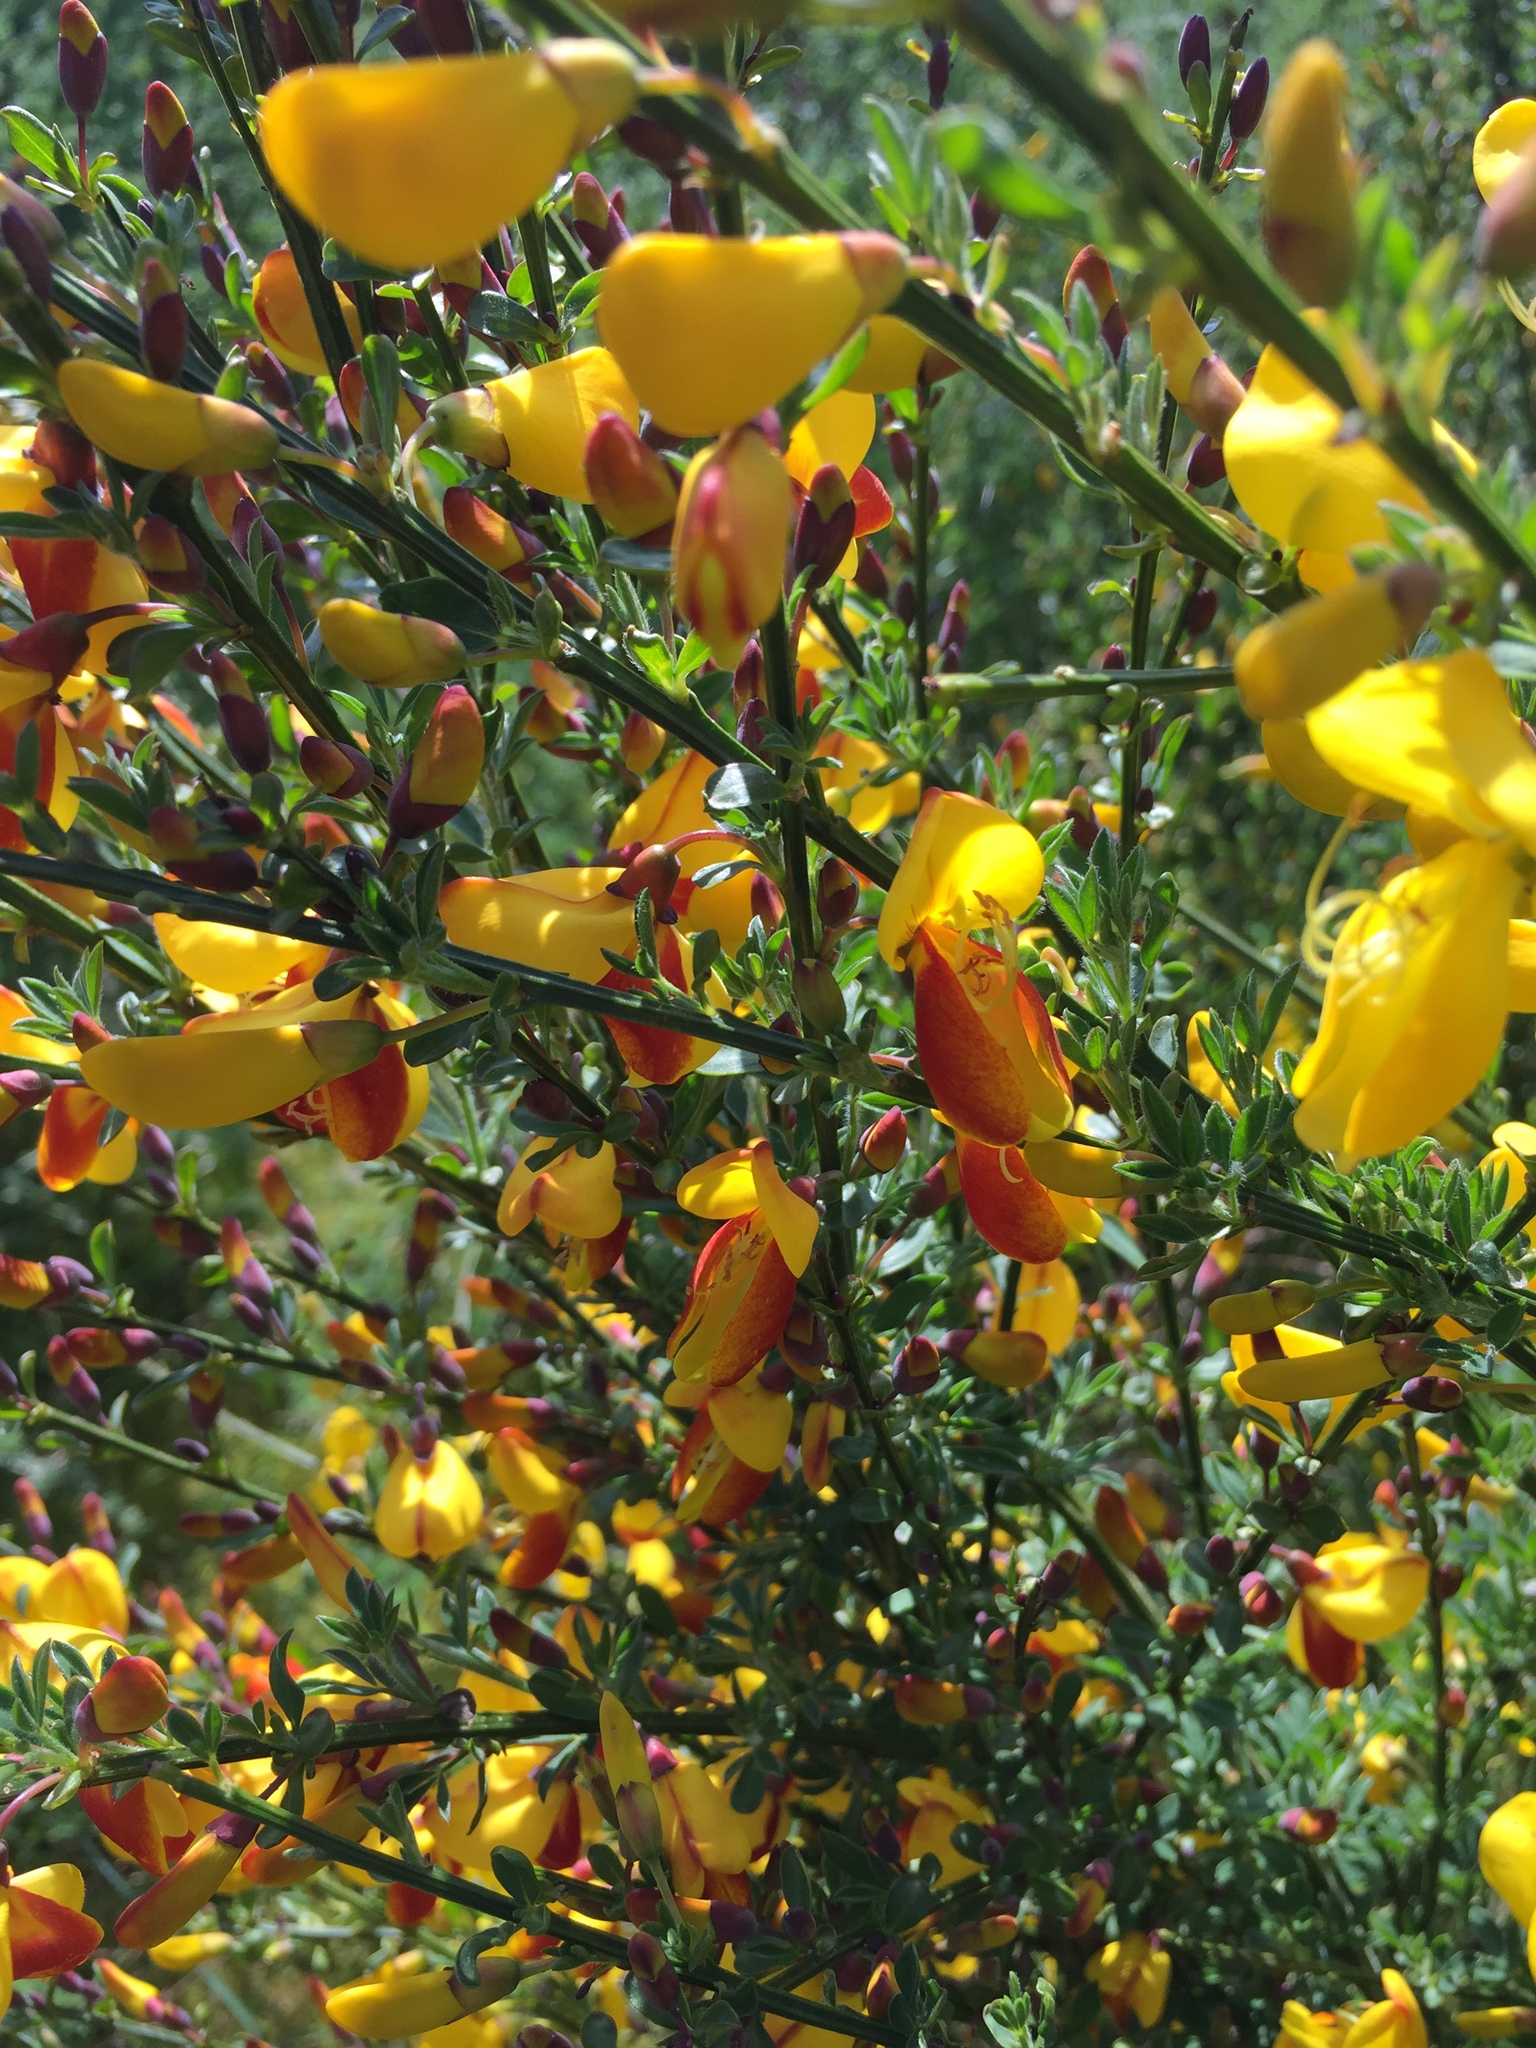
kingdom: Plantae
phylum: Tracheophyta
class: Magnoliopsida
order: Fabales
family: Fabaceae
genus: Cytisus
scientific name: Cytisus scoparius
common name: Scotch broom
